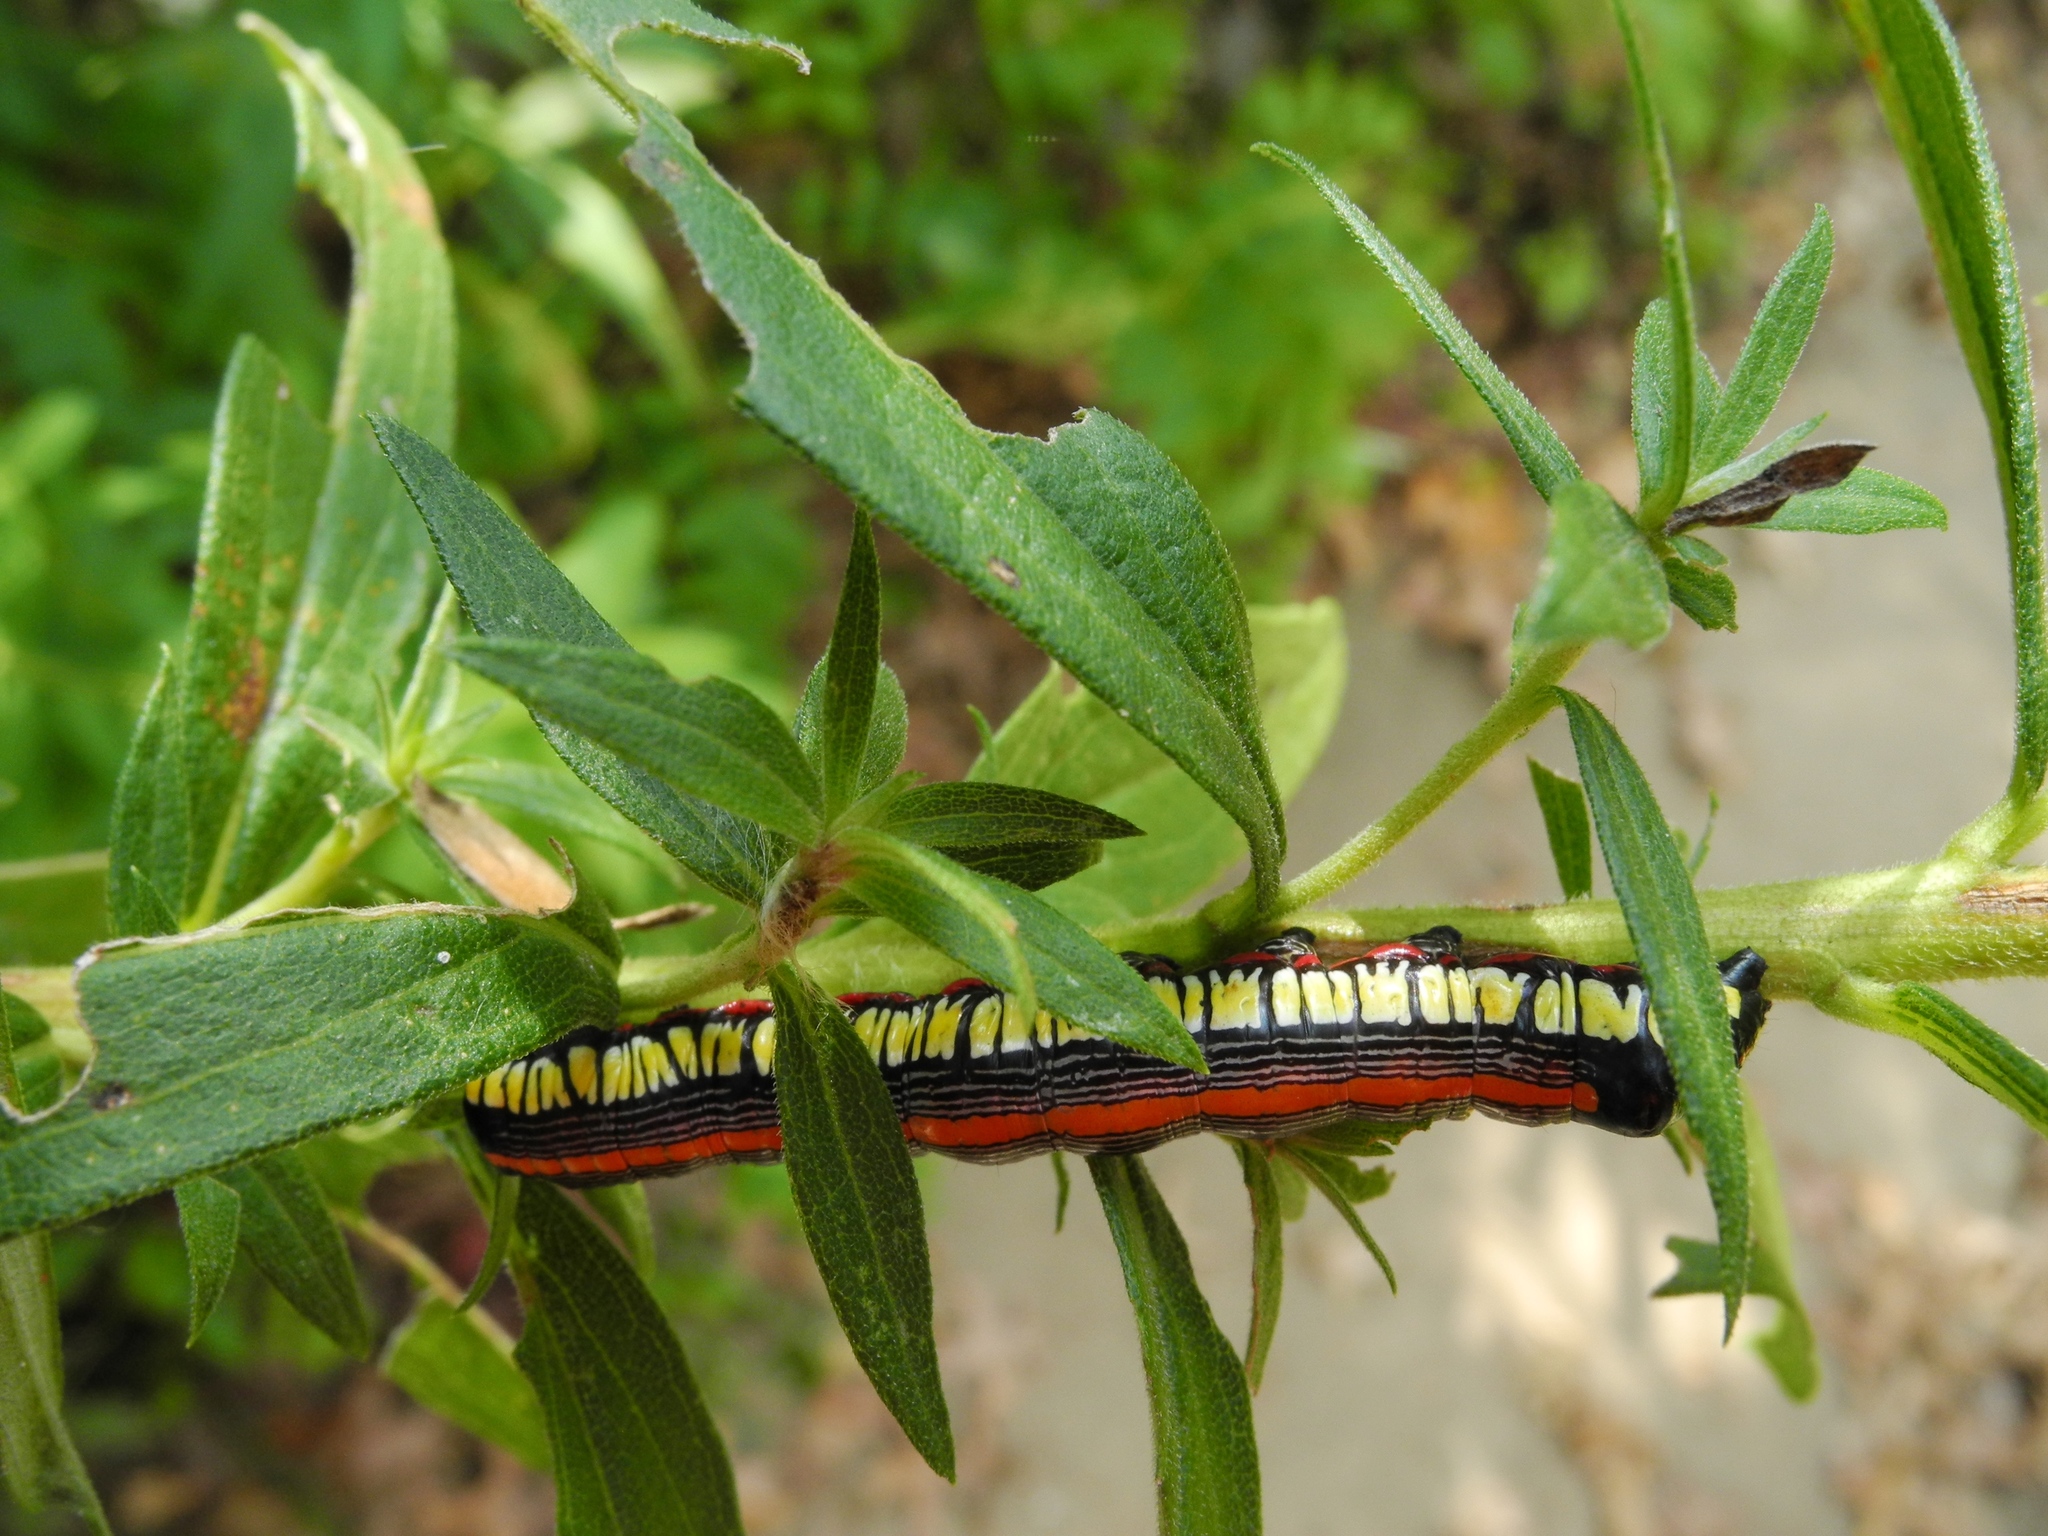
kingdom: Animalia
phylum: Arthropoda
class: Insecta
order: Lepidoptera
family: Noctuidae
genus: Cucullia
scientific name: Cucullia convexipennis
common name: Brown-hooded owlet
